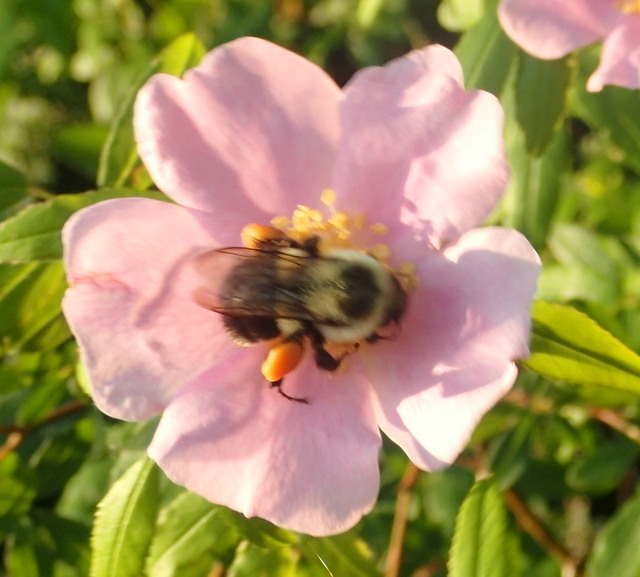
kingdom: Animalia
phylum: Arthropoda
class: Insecta
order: Hymenoptera
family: Apidae
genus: Bombus
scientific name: Bombus impatiens
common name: Common eastern bumble bee
